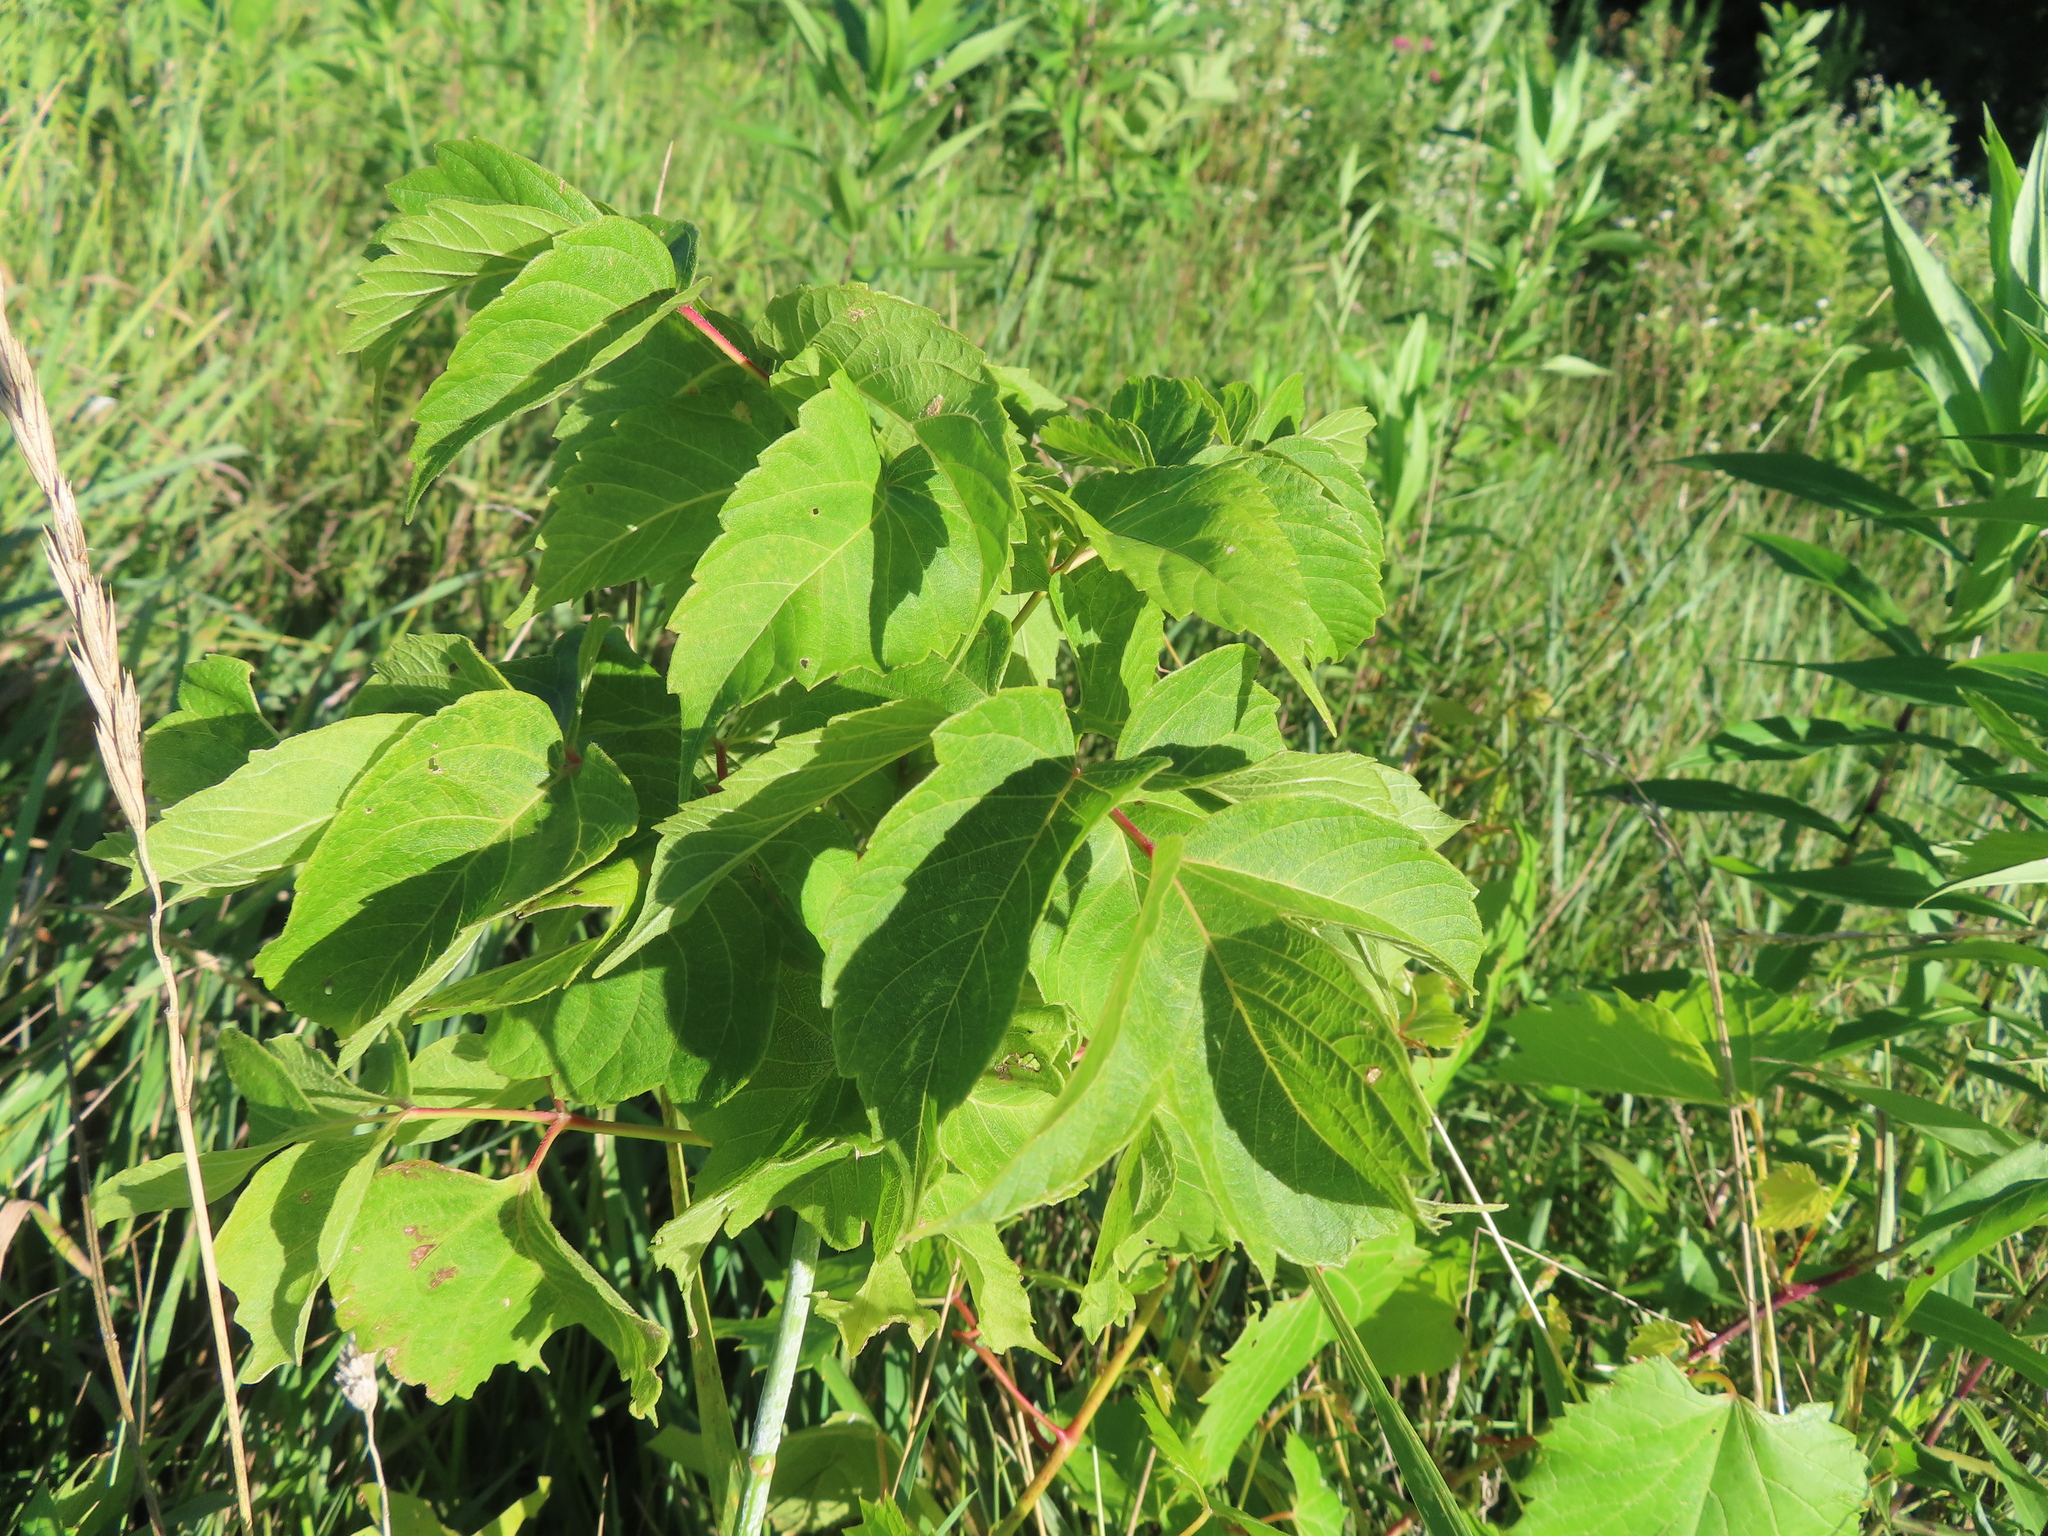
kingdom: Plantae
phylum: Tracheophyta
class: Magnoliopsida
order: Sapindales
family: Sapindaceae
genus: Acer
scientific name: Acer negundo
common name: Ashleaf maple
